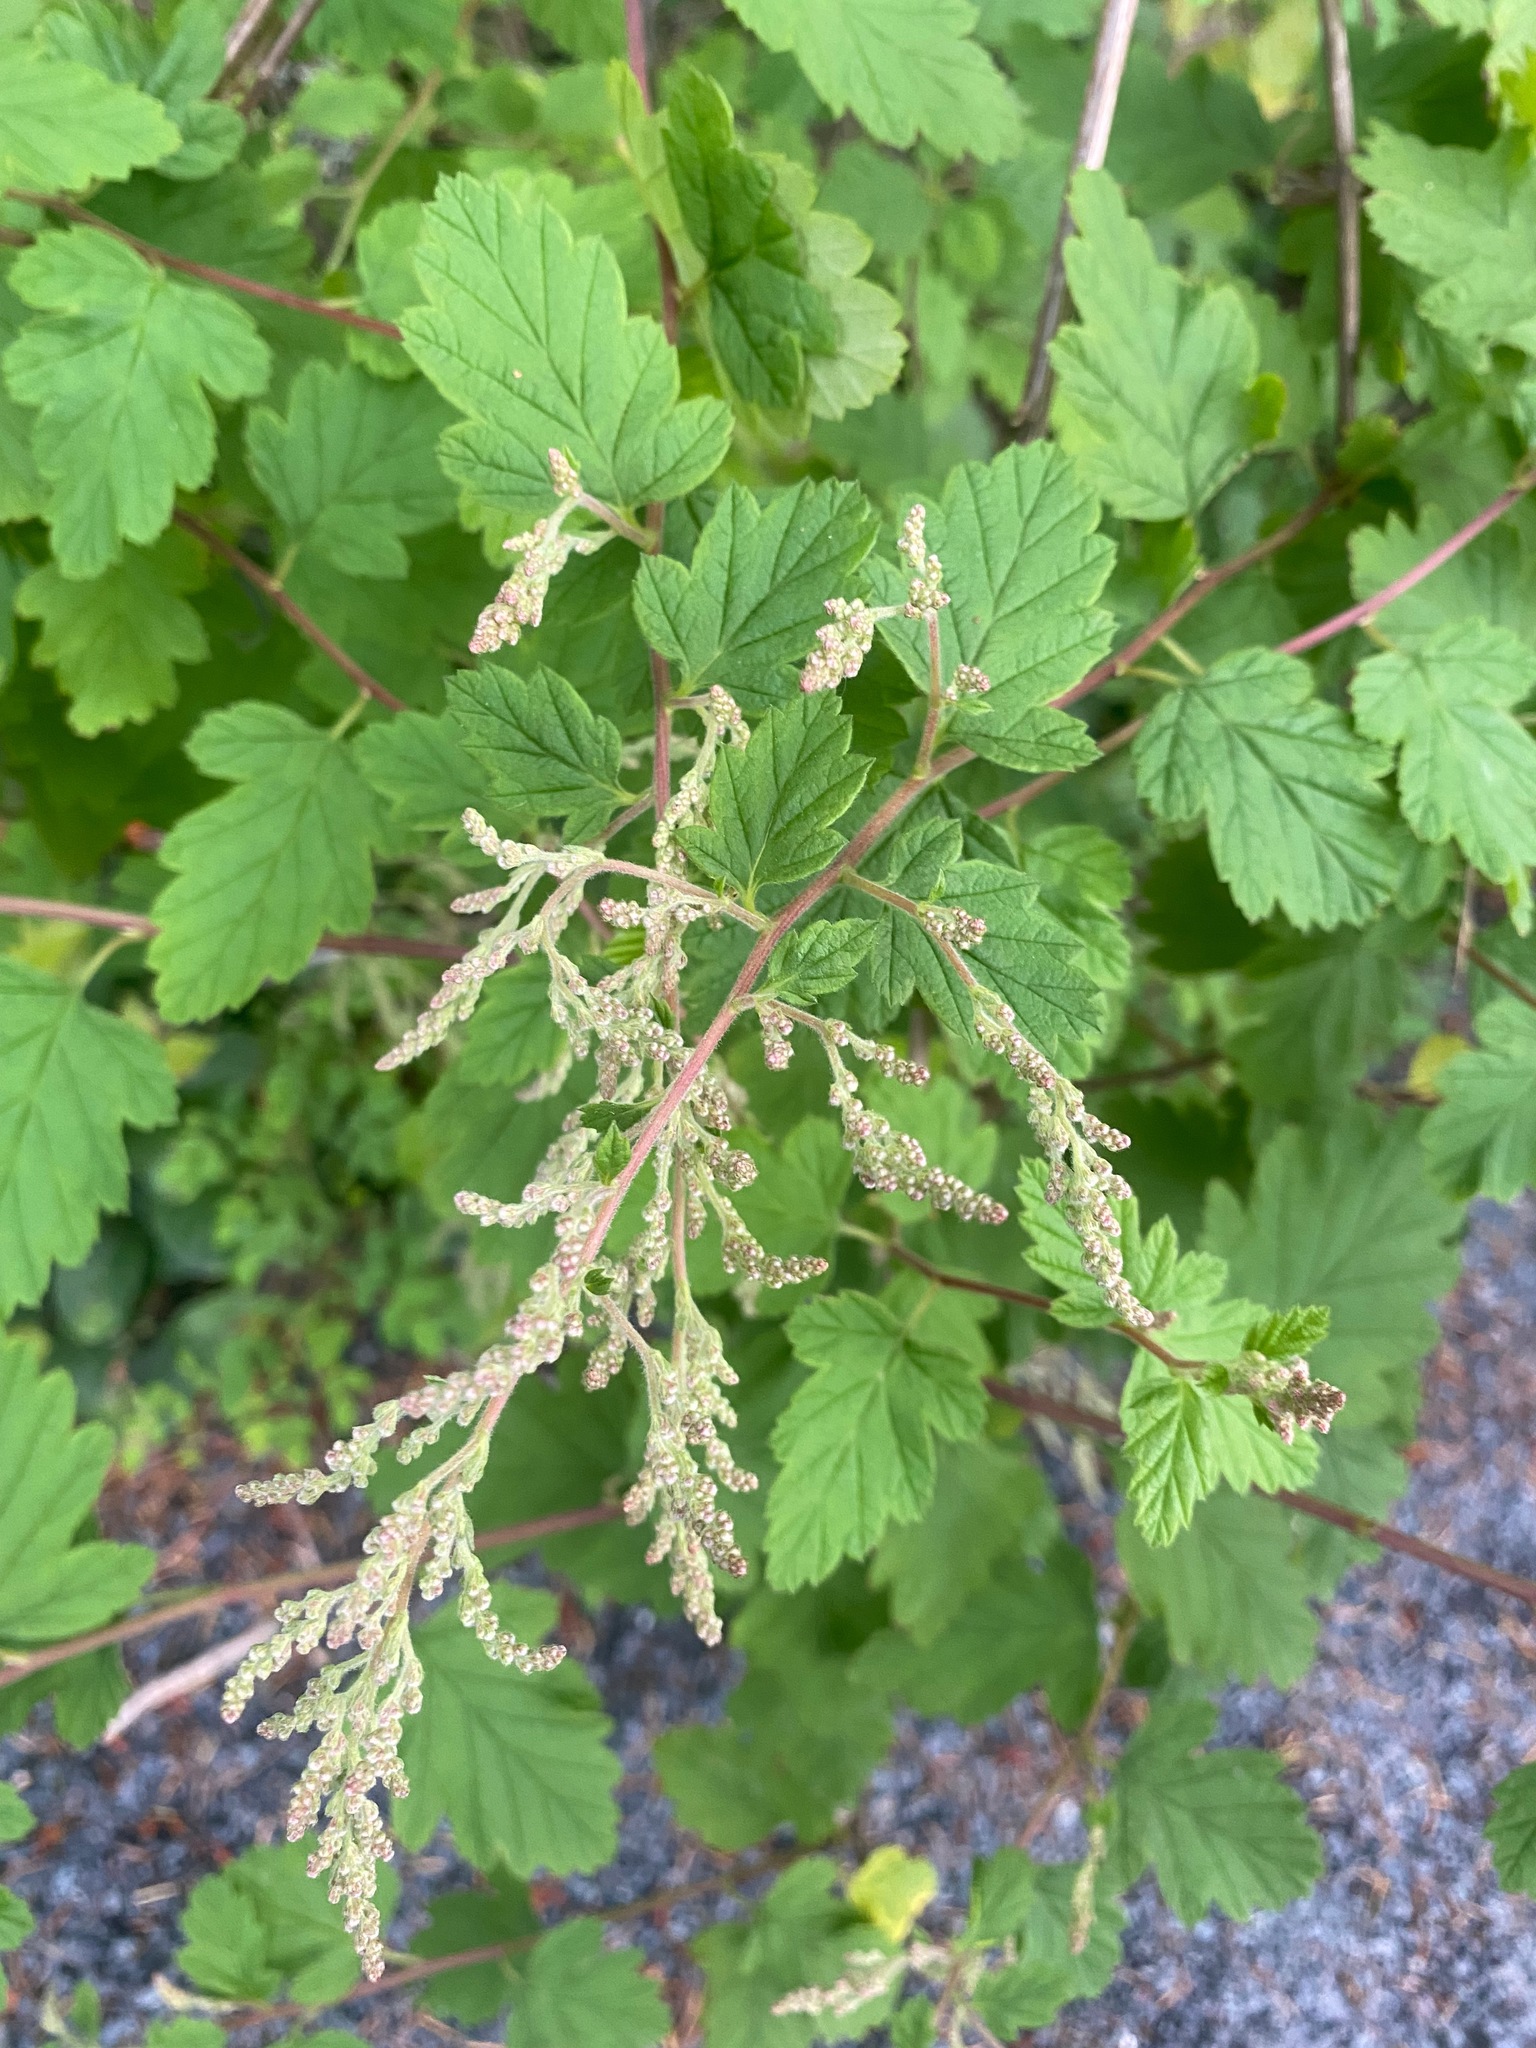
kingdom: Plantae
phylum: Tracheophyta
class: Magnoliopsida
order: Rosales
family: Rosaceae
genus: Holodiscus
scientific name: Holodiscus discolor
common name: Oceanspray
